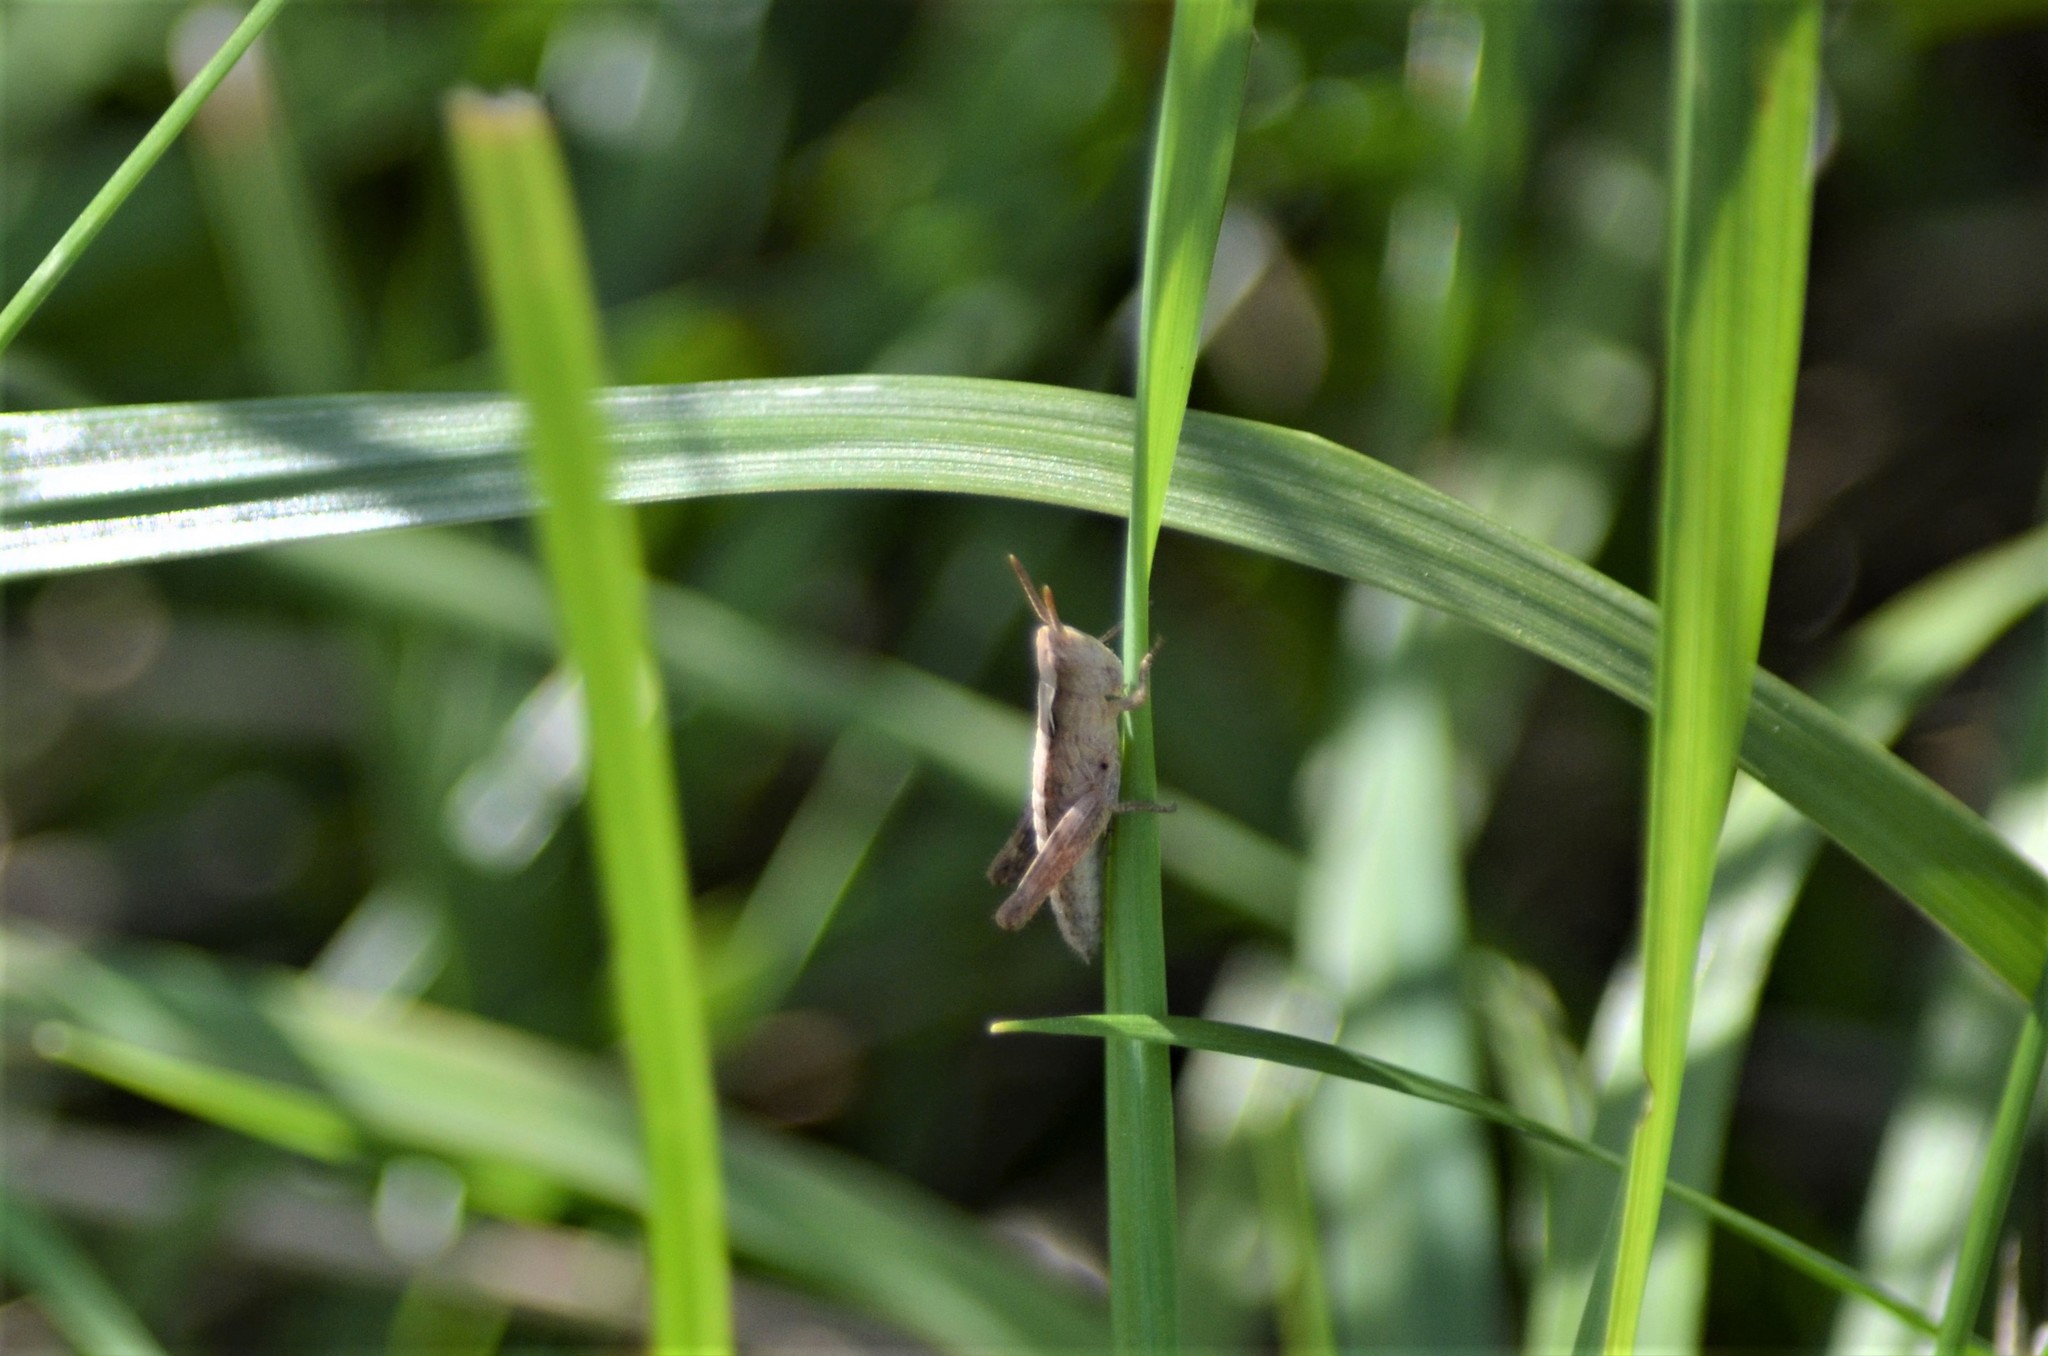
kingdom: Animalia
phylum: Arthropoda
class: Insecta
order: Orthoptera
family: Acrididae
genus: Gomphocerippus
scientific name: Gomphocerippus rufus
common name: Rufous grasshopper
